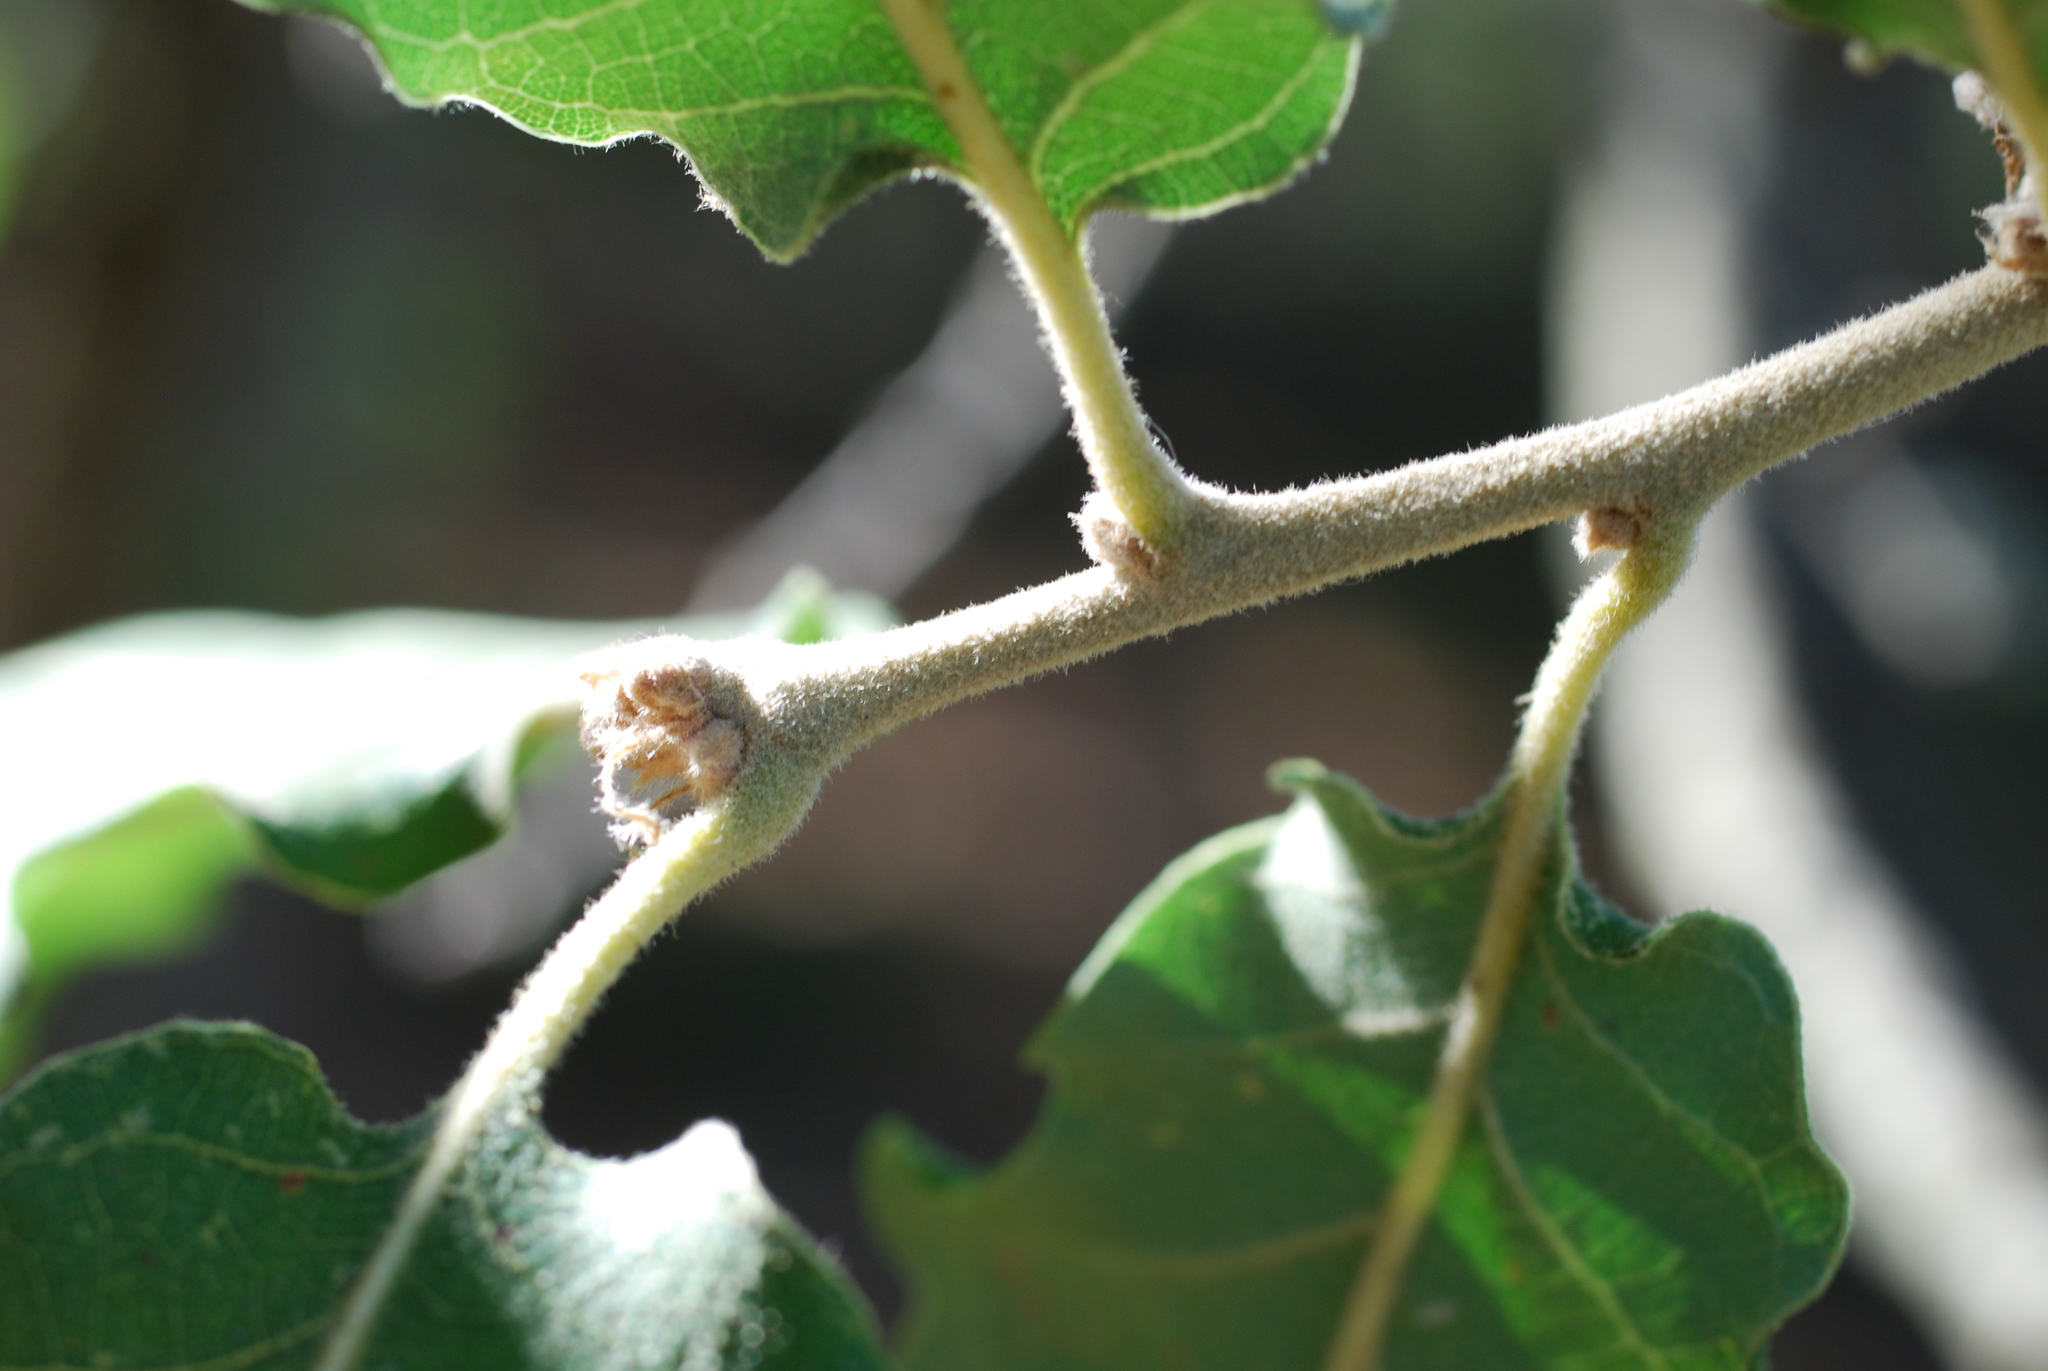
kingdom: Plantae
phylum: Tracheophyta
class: Magnoliopsida
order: Fagales
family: Fagaceae
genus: Quercus
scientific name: Quercus pubescens
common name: Downy oak
